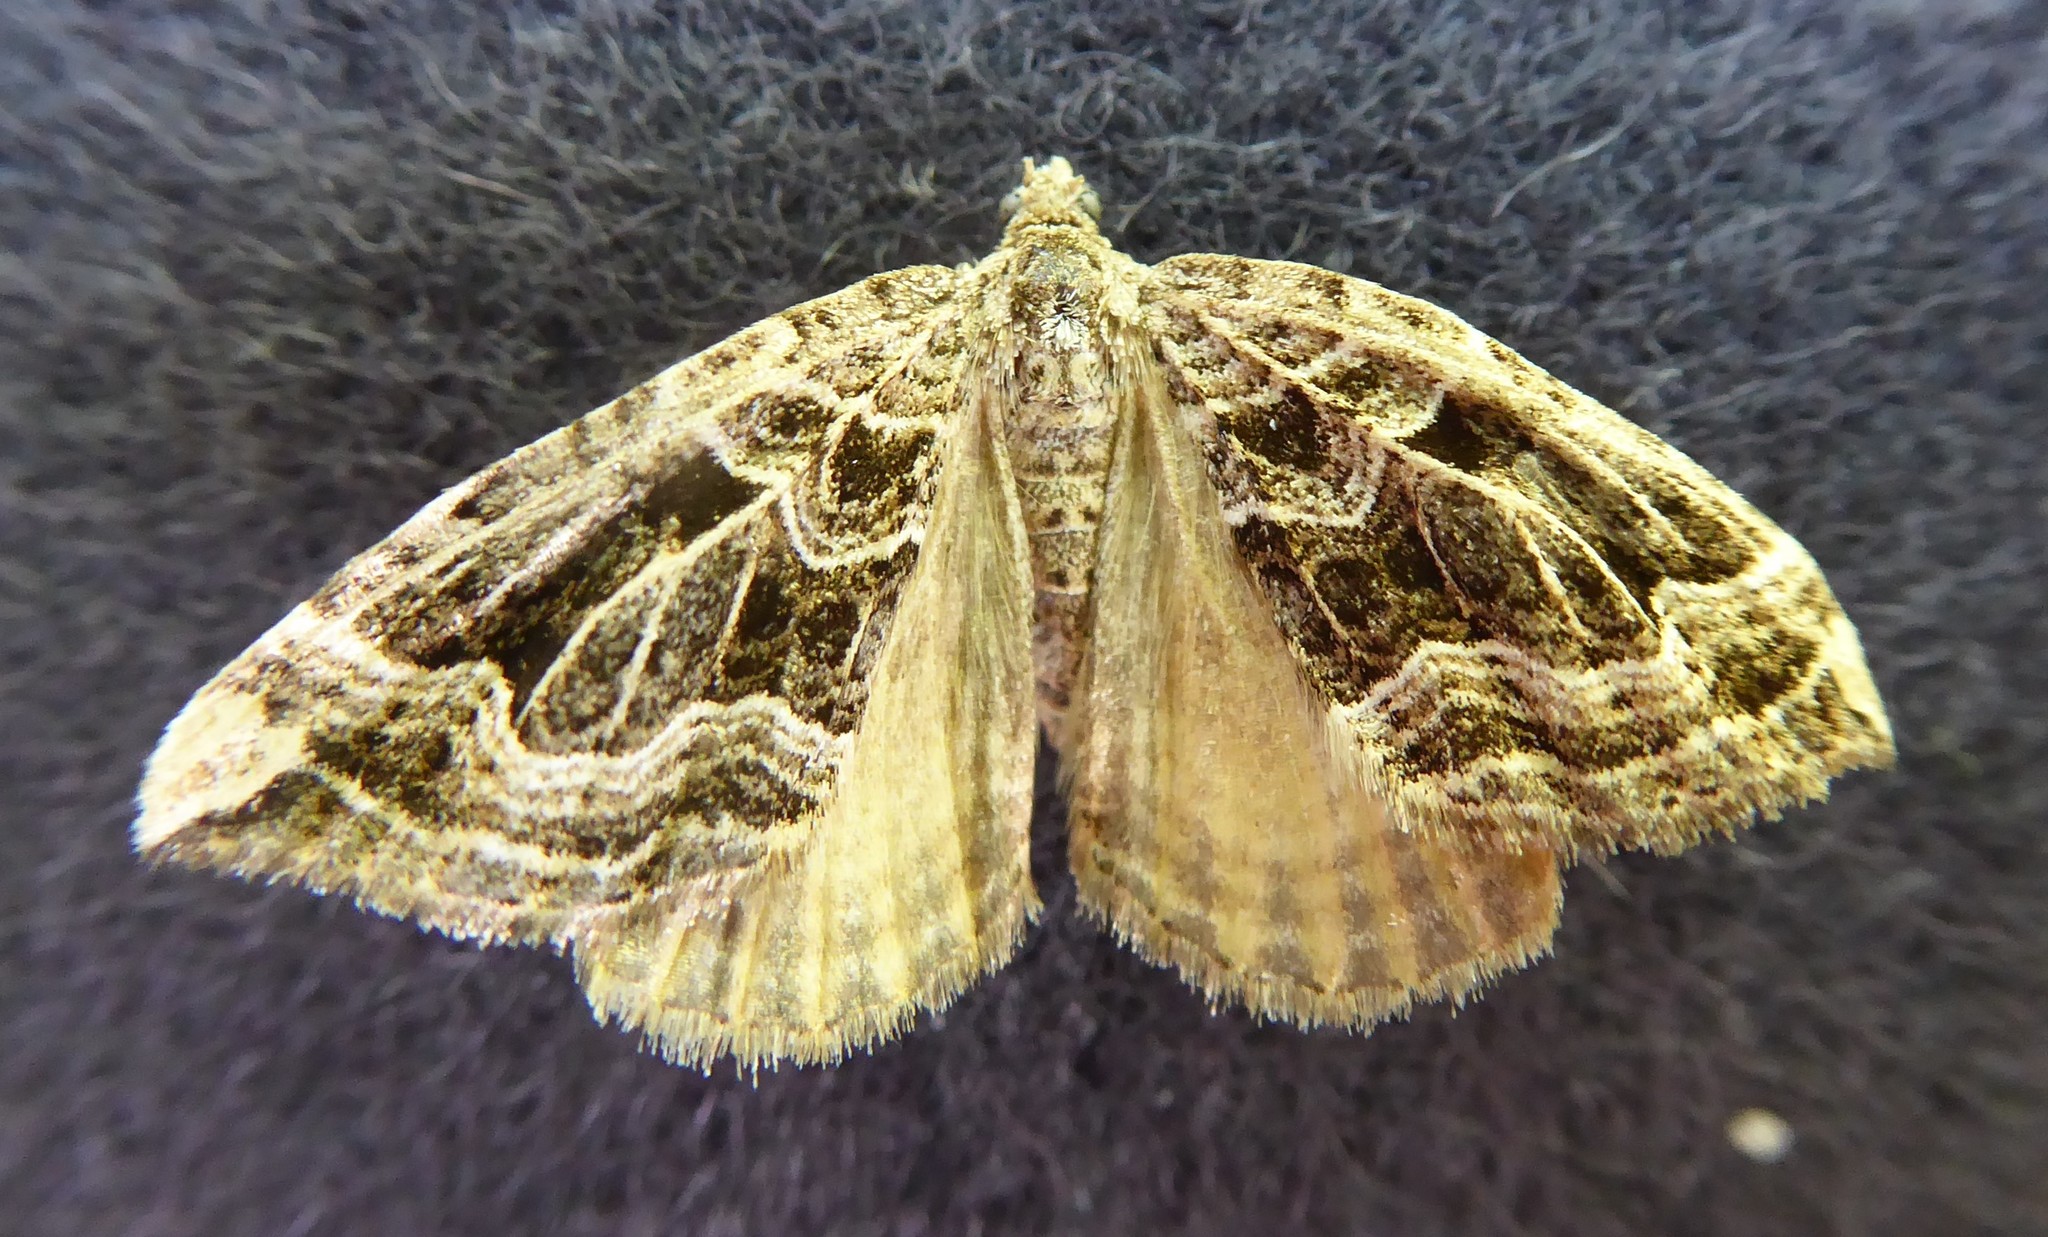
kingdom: Animalia
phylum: Arthropoda
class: Insecta
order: Lepidoptera
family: Geometridae
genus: Xanthorhoe
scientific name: Xanthorhoe semifissata
